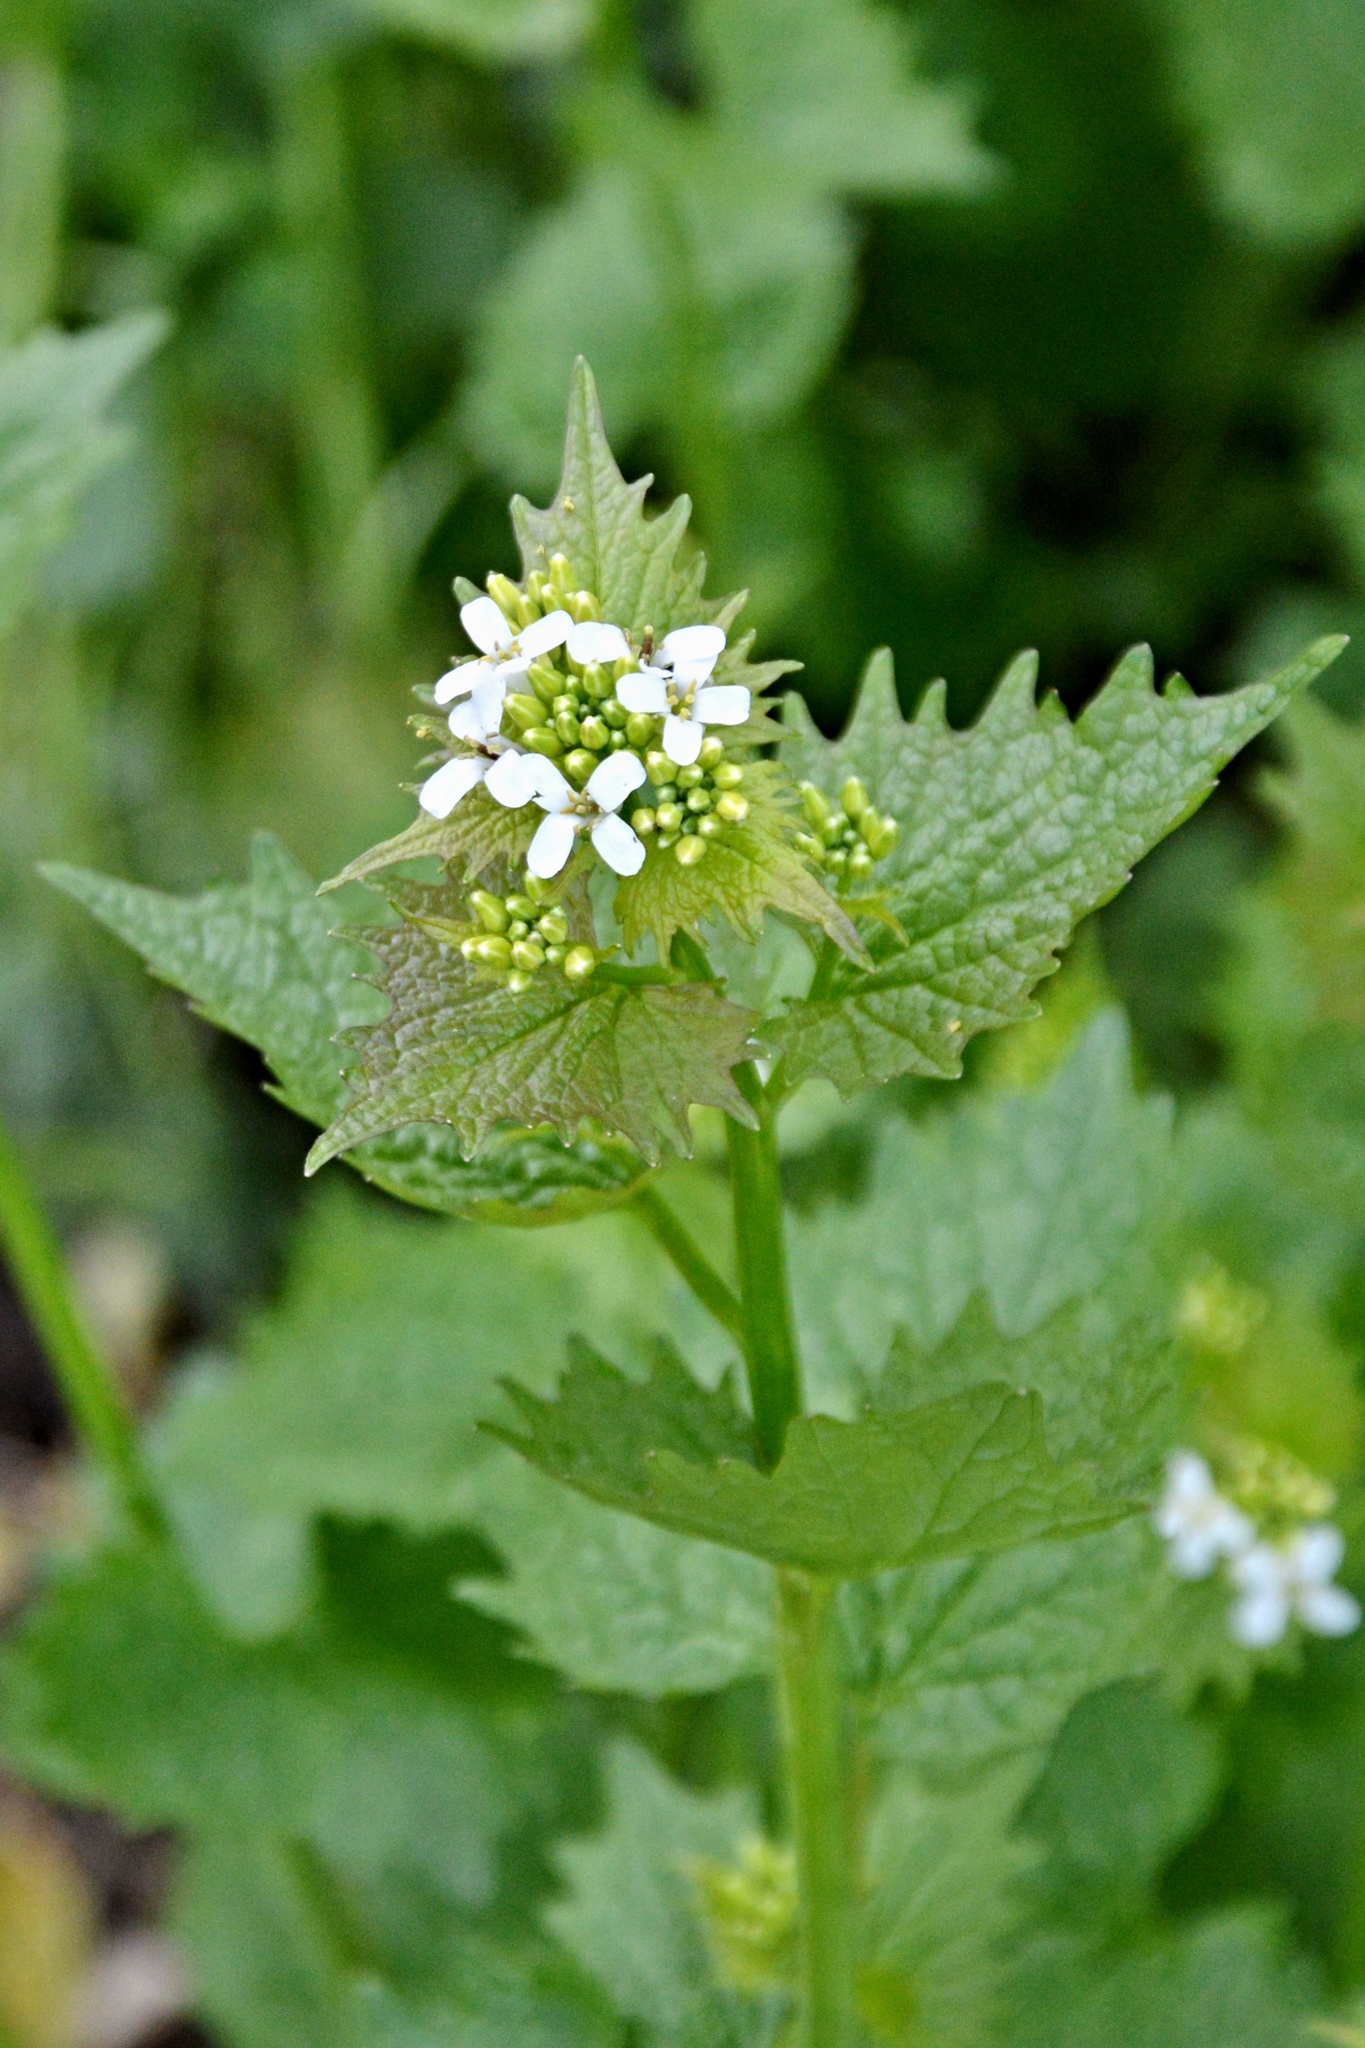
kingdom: Plantae
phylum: Tracheophyta
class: Magnoliopsida
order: Brassicales
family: Brassicaceae
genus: Alliaria
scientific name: Alliaria petiolata
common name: Garlic mustard
